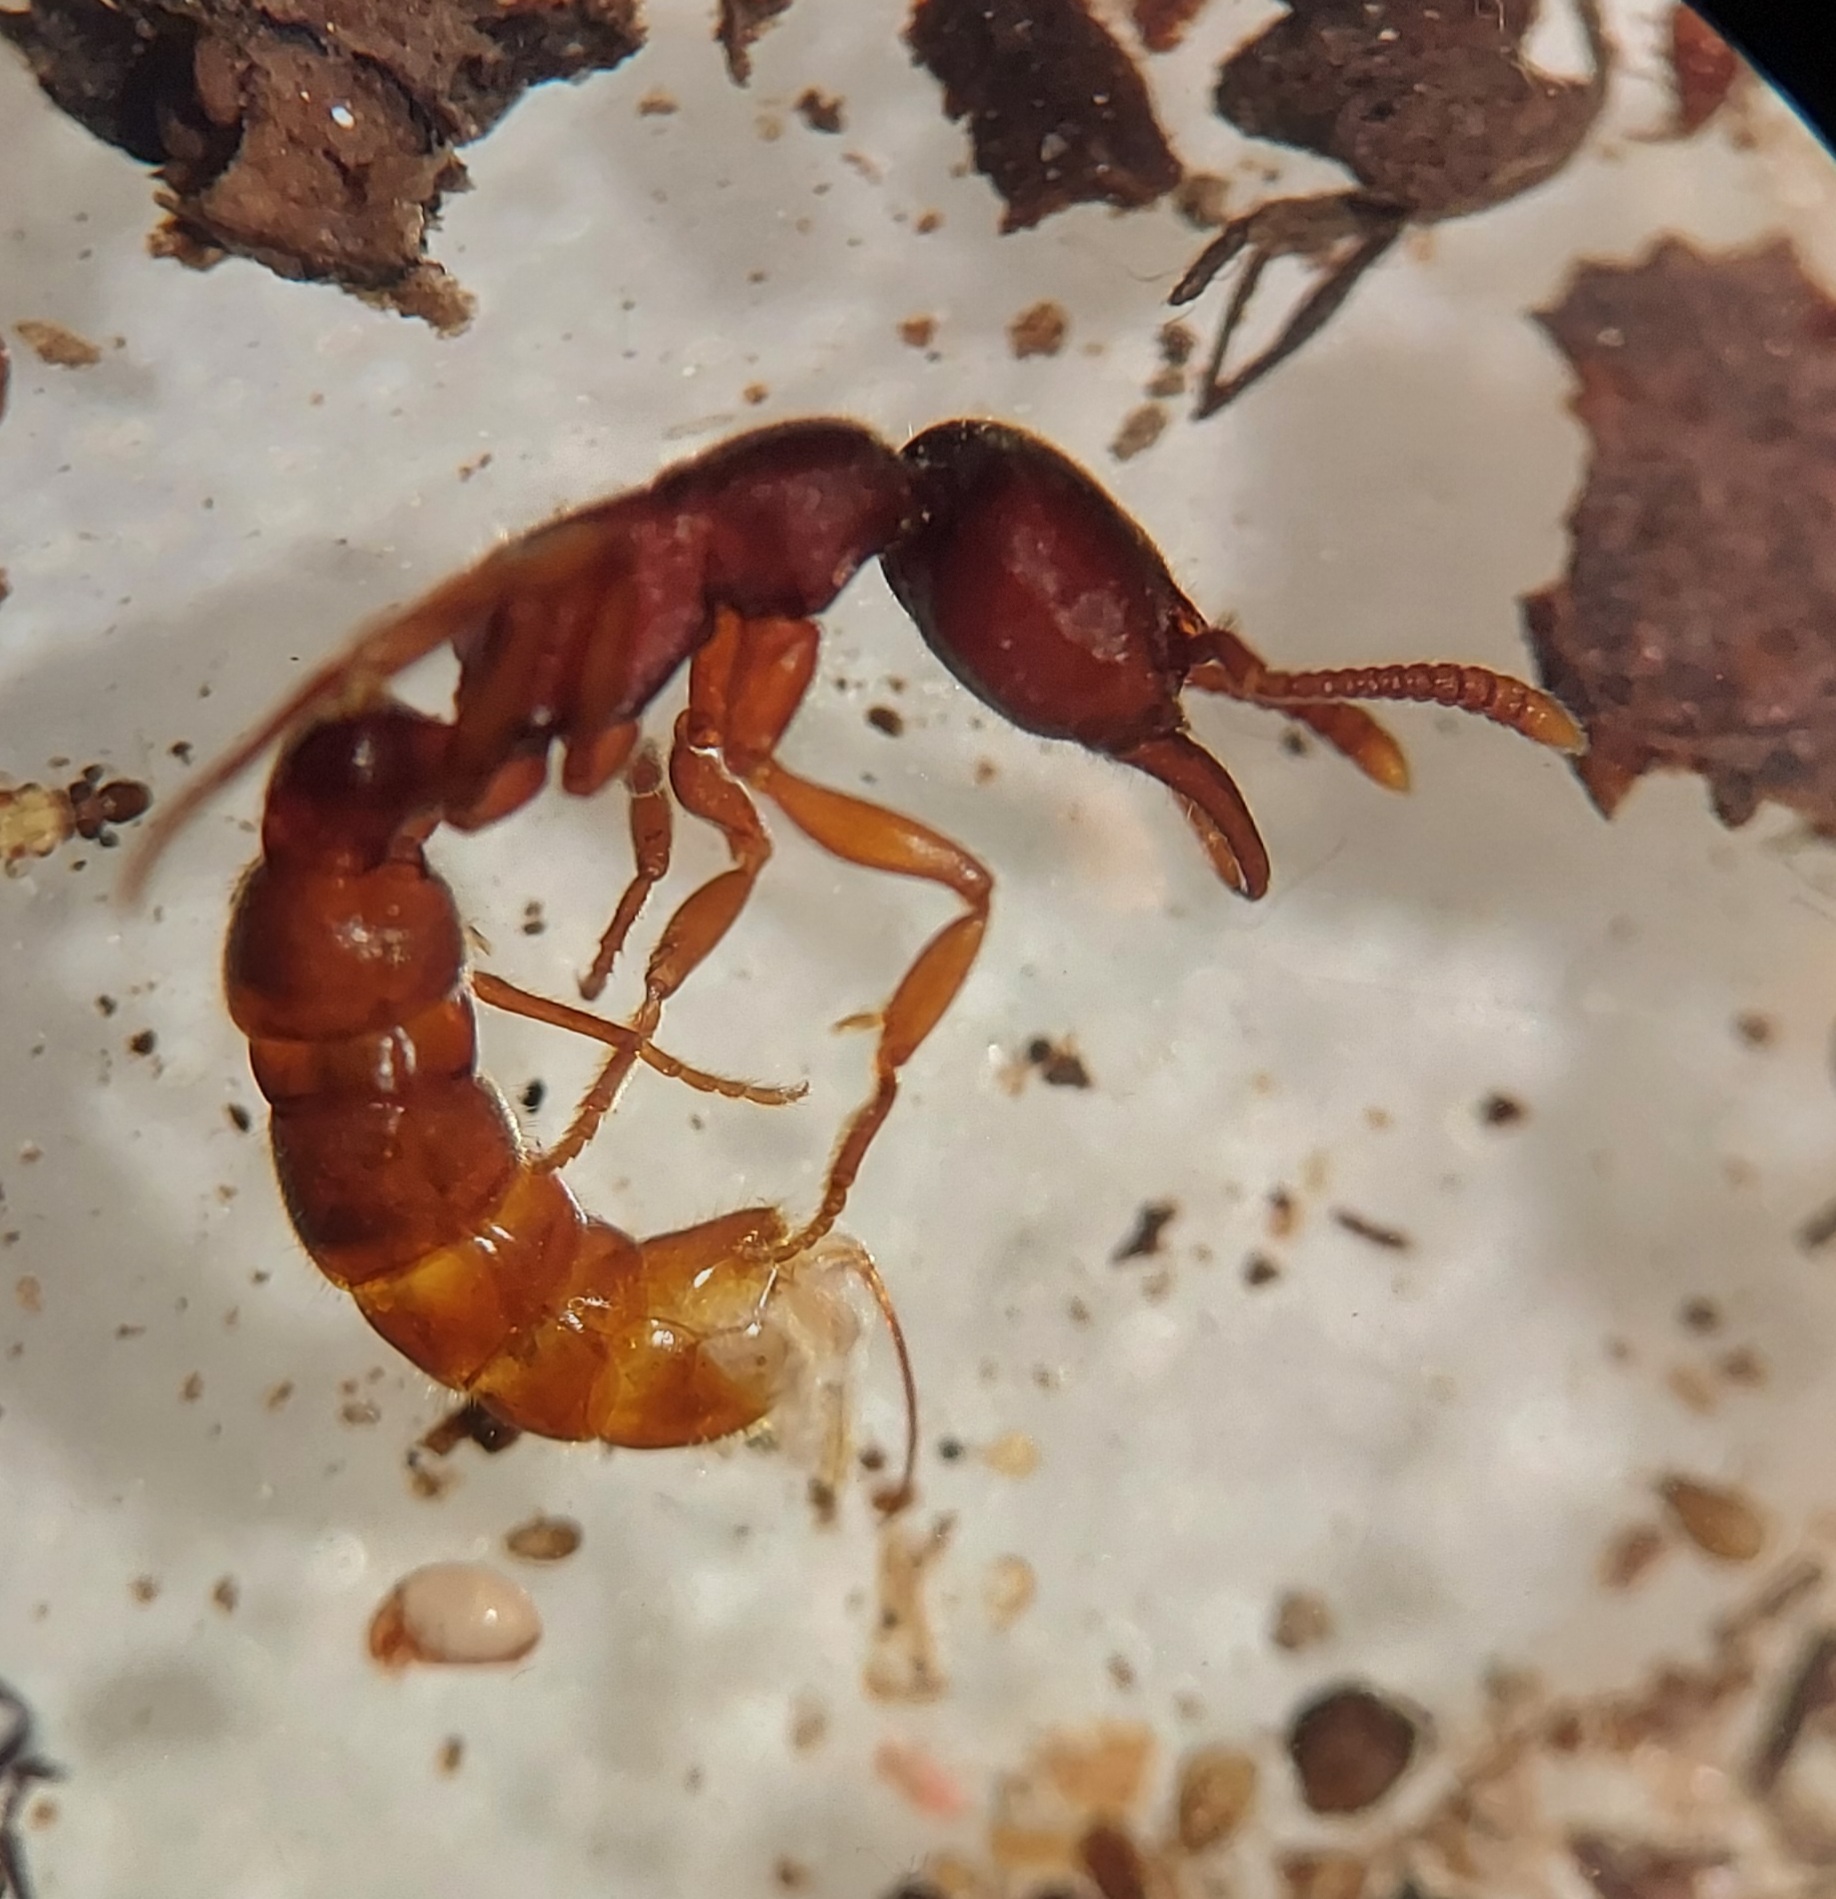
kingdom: Animalia
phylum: Arthropoda
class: Insecta
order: Hymenoptera
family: Formicidae
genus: Stigmatomma
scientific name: Stigmatomma pallipes
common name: Vampire ant
